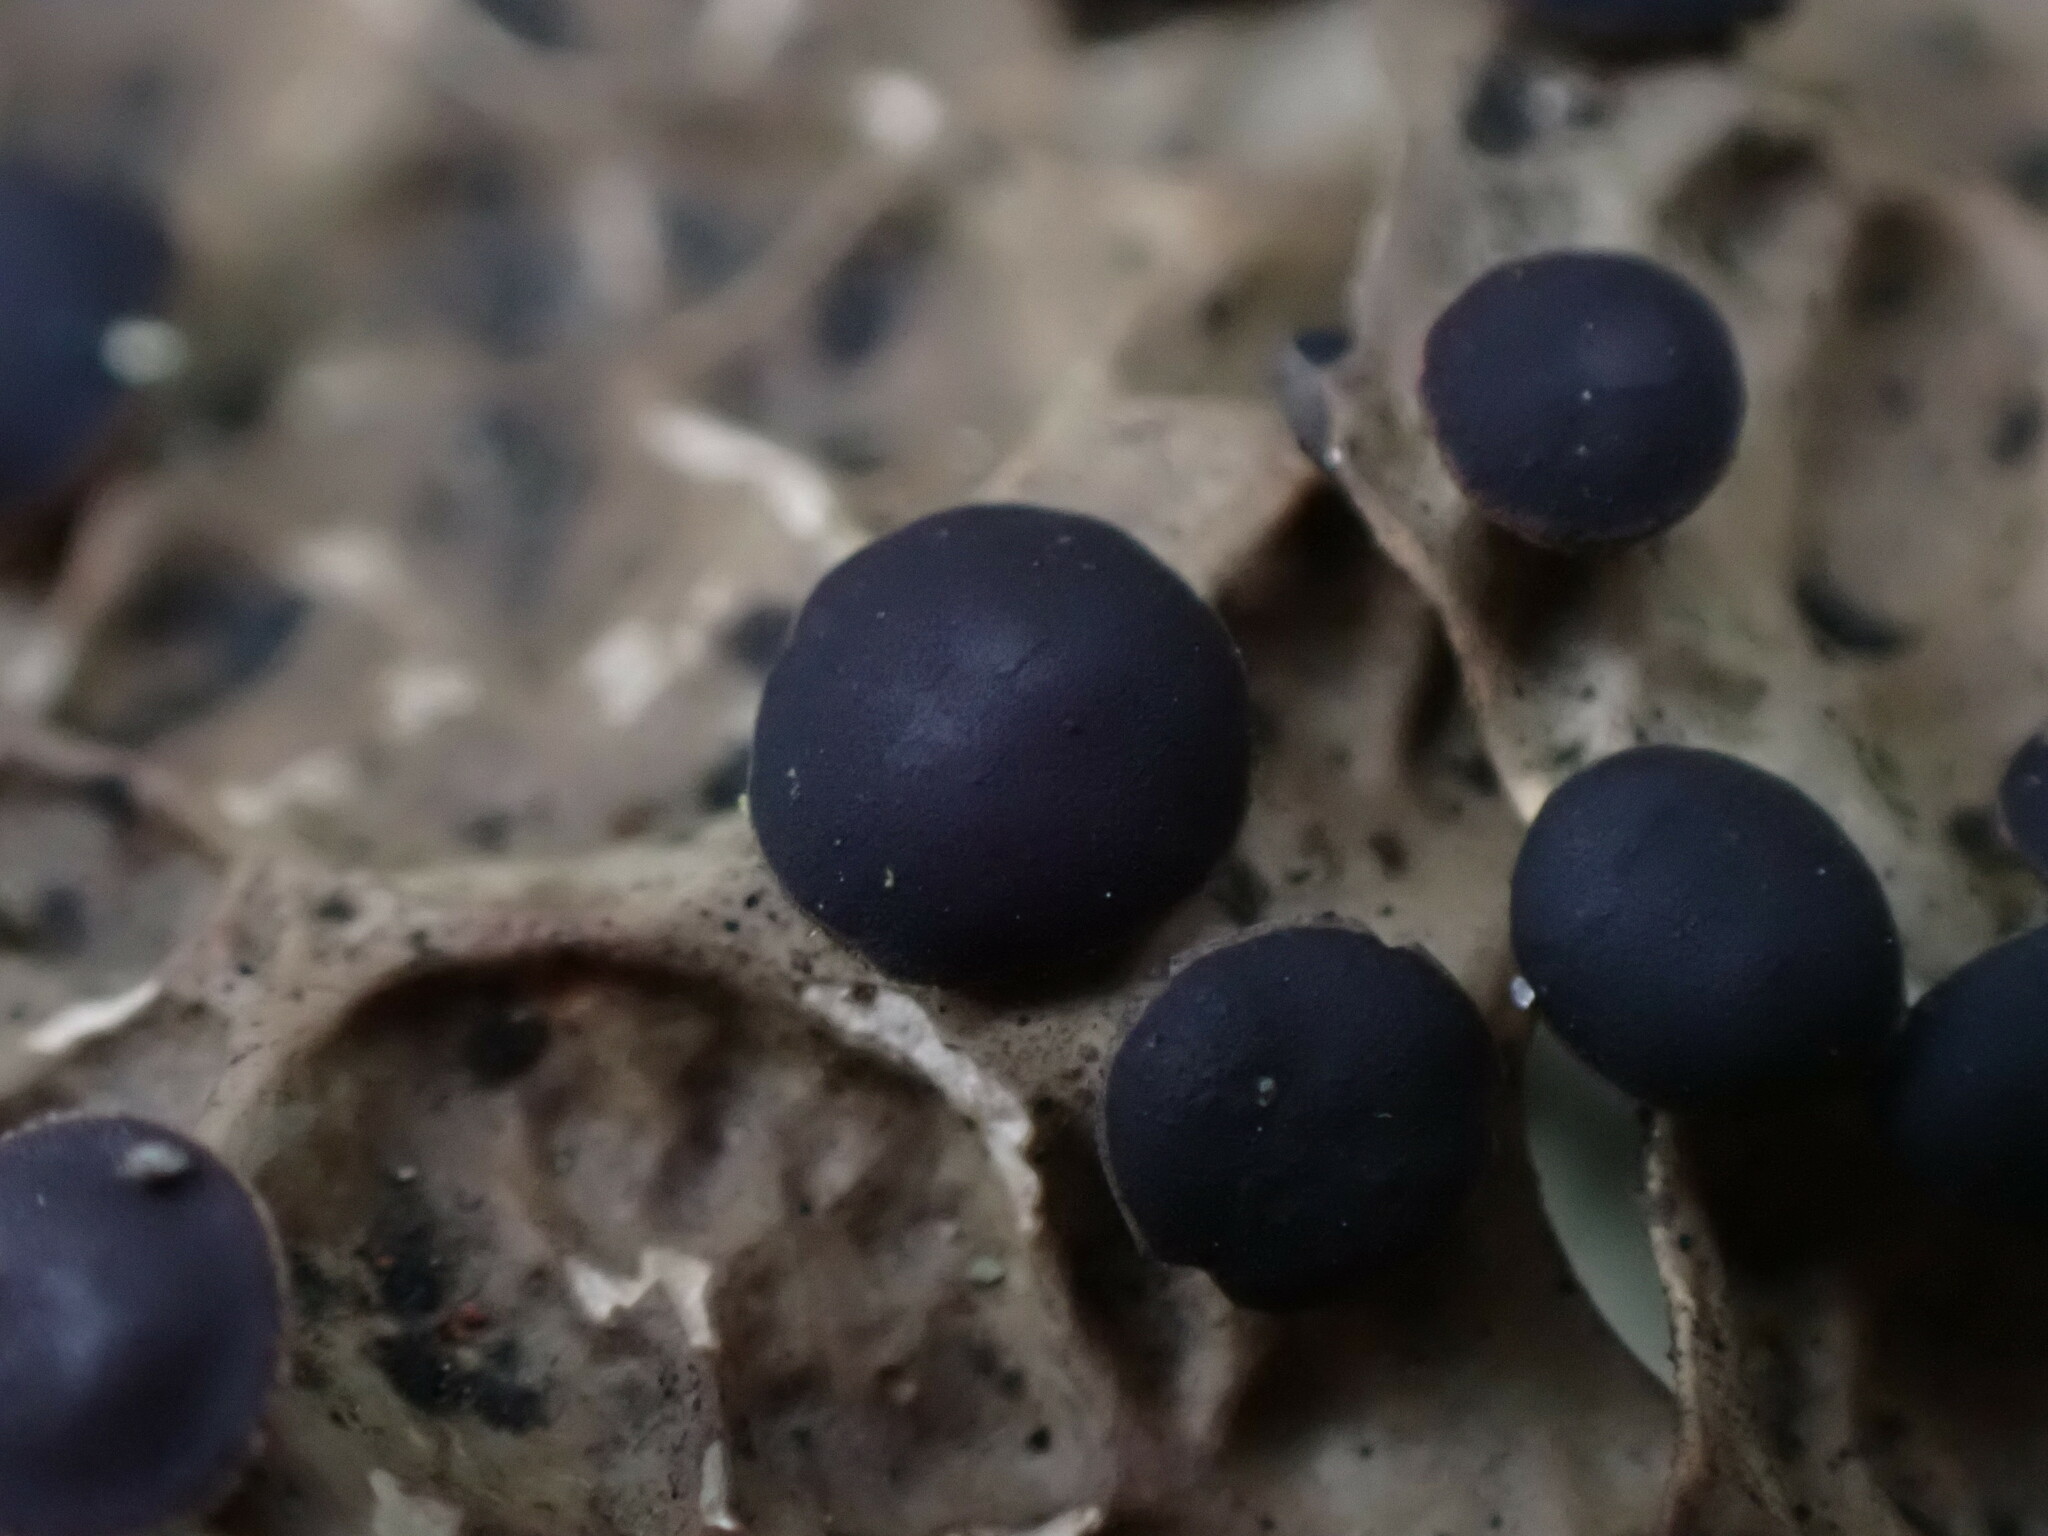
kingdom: Fungi
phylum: Ascomycota
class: Lecanoromycetes
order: Peltigerales
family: Lobariaceae
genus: Lobaria
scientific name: Lobaria anthraspis
